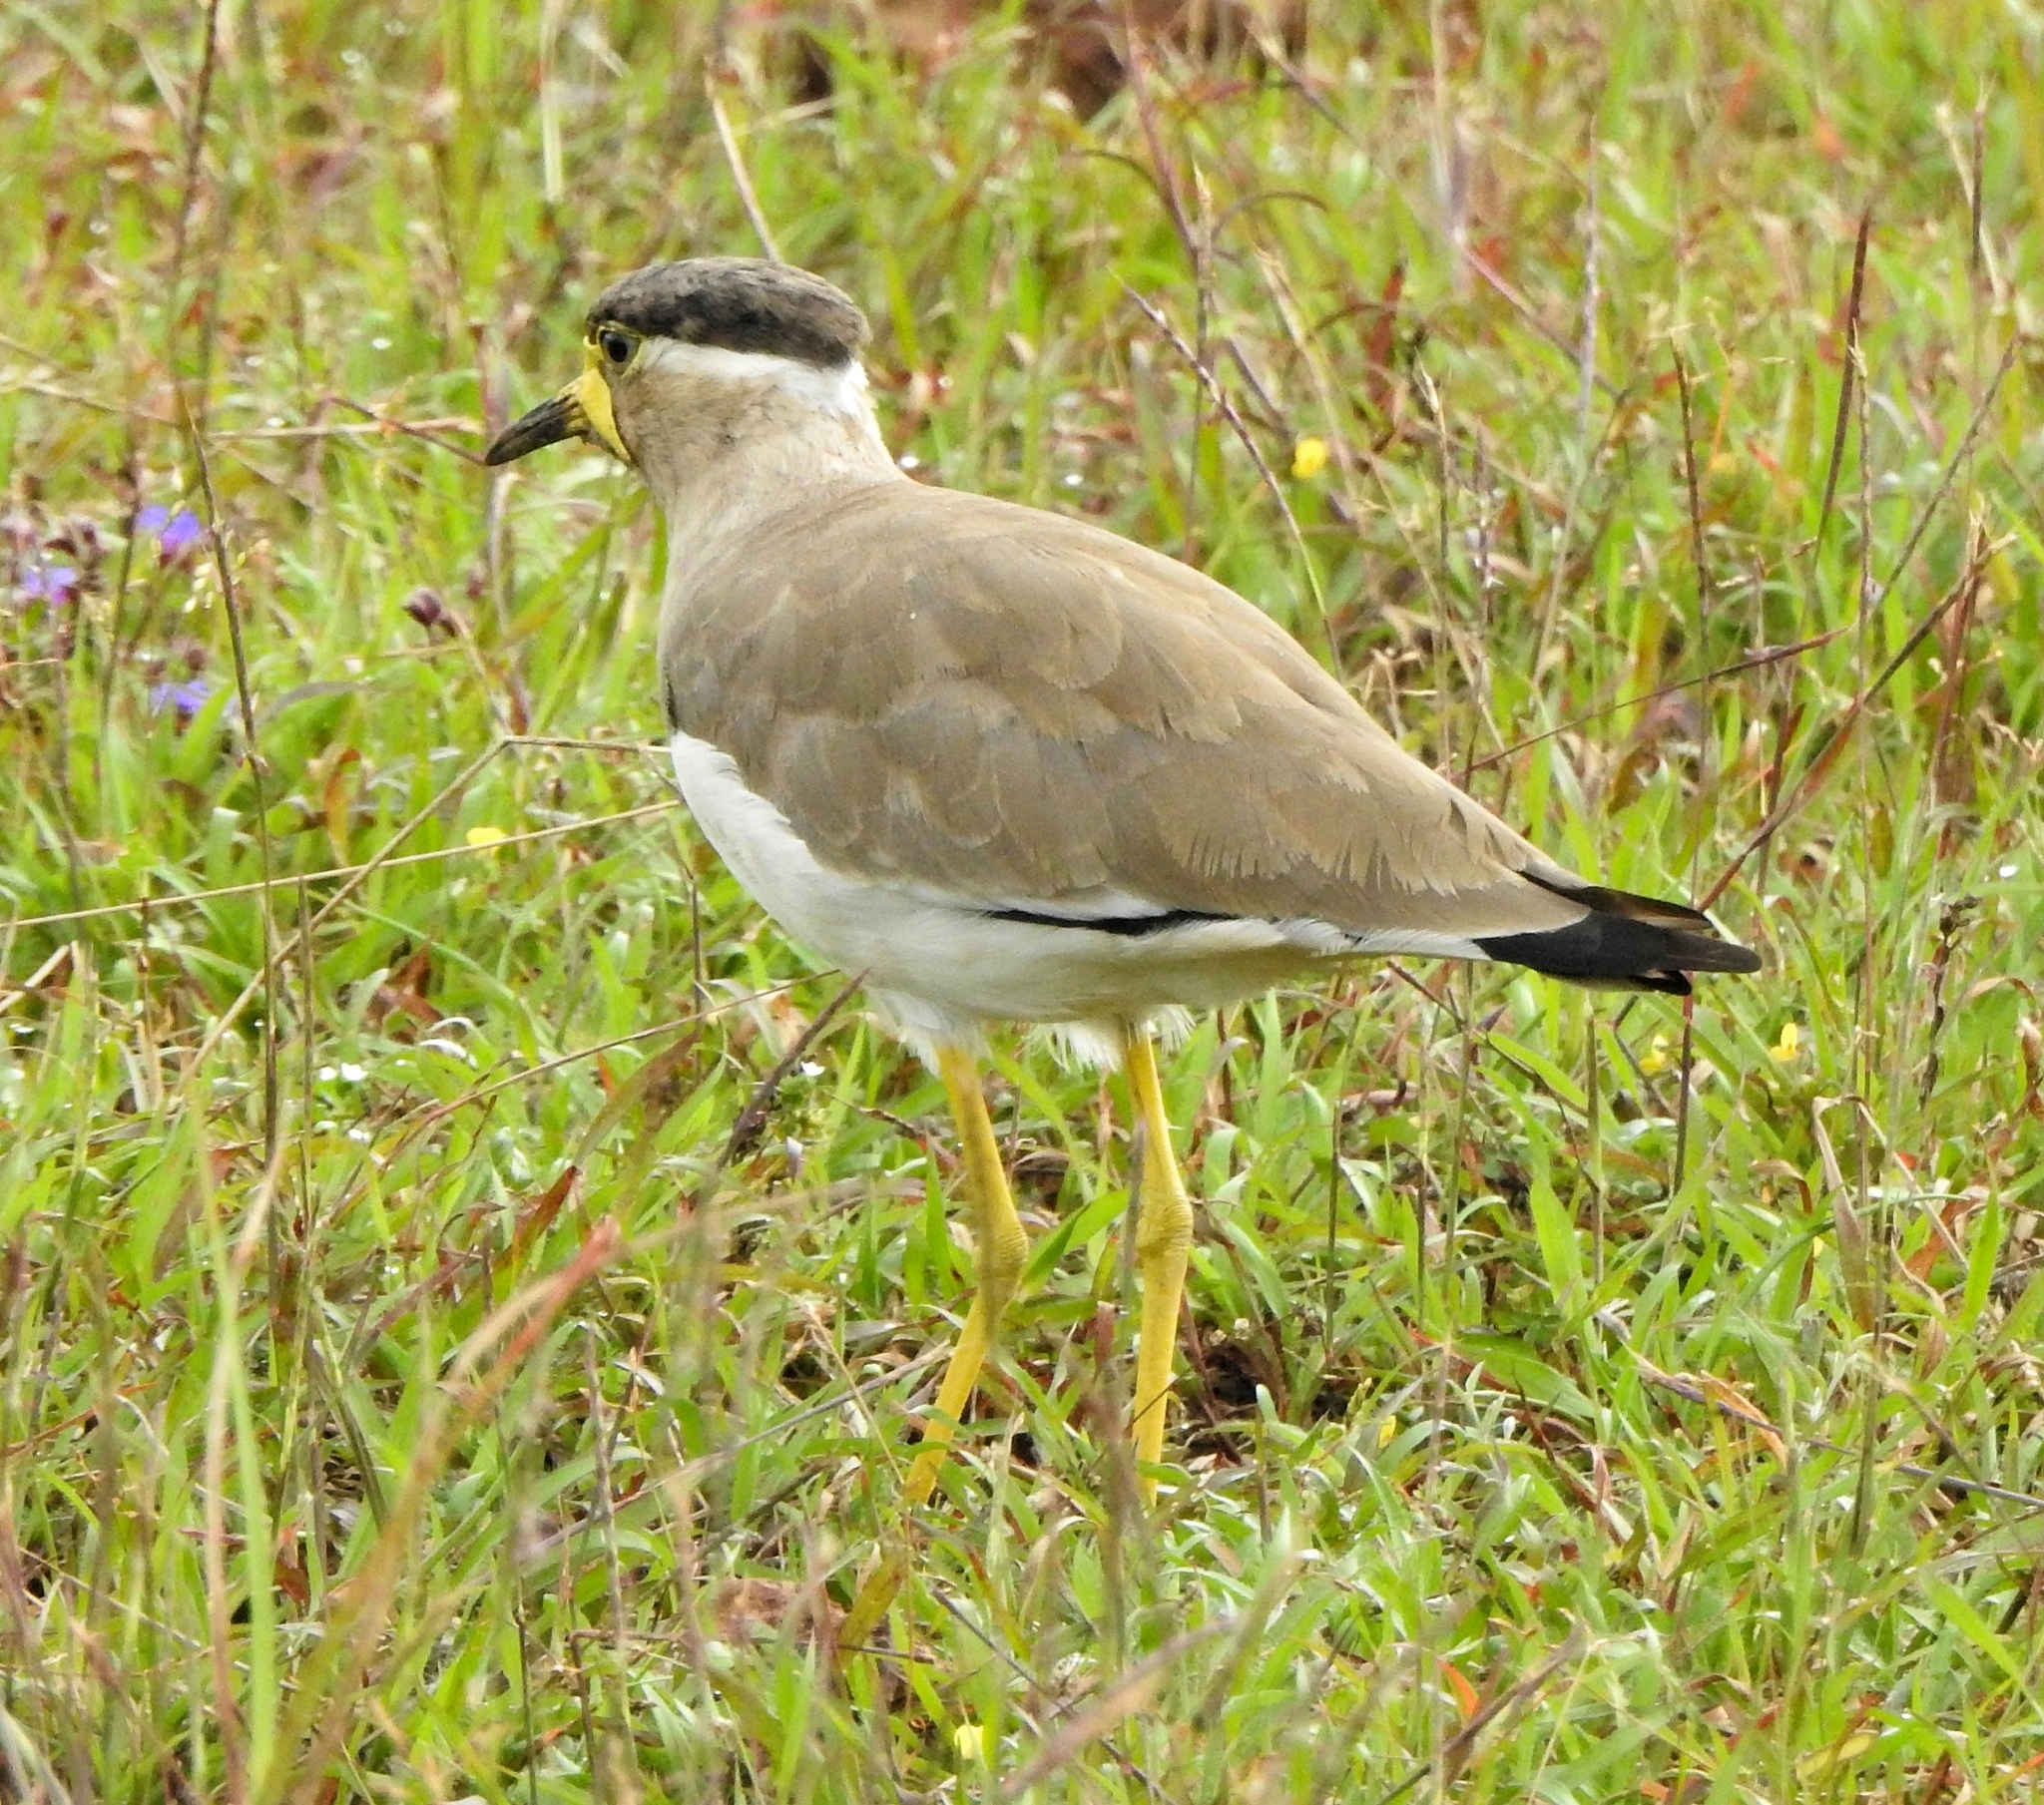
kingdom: Animalia
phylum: Chordata
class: Aves
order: Charadriiformes
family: Charadriidae
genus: Vanellus
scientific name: Vanellus malabaricus
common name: Yellow-wattled lapwing
